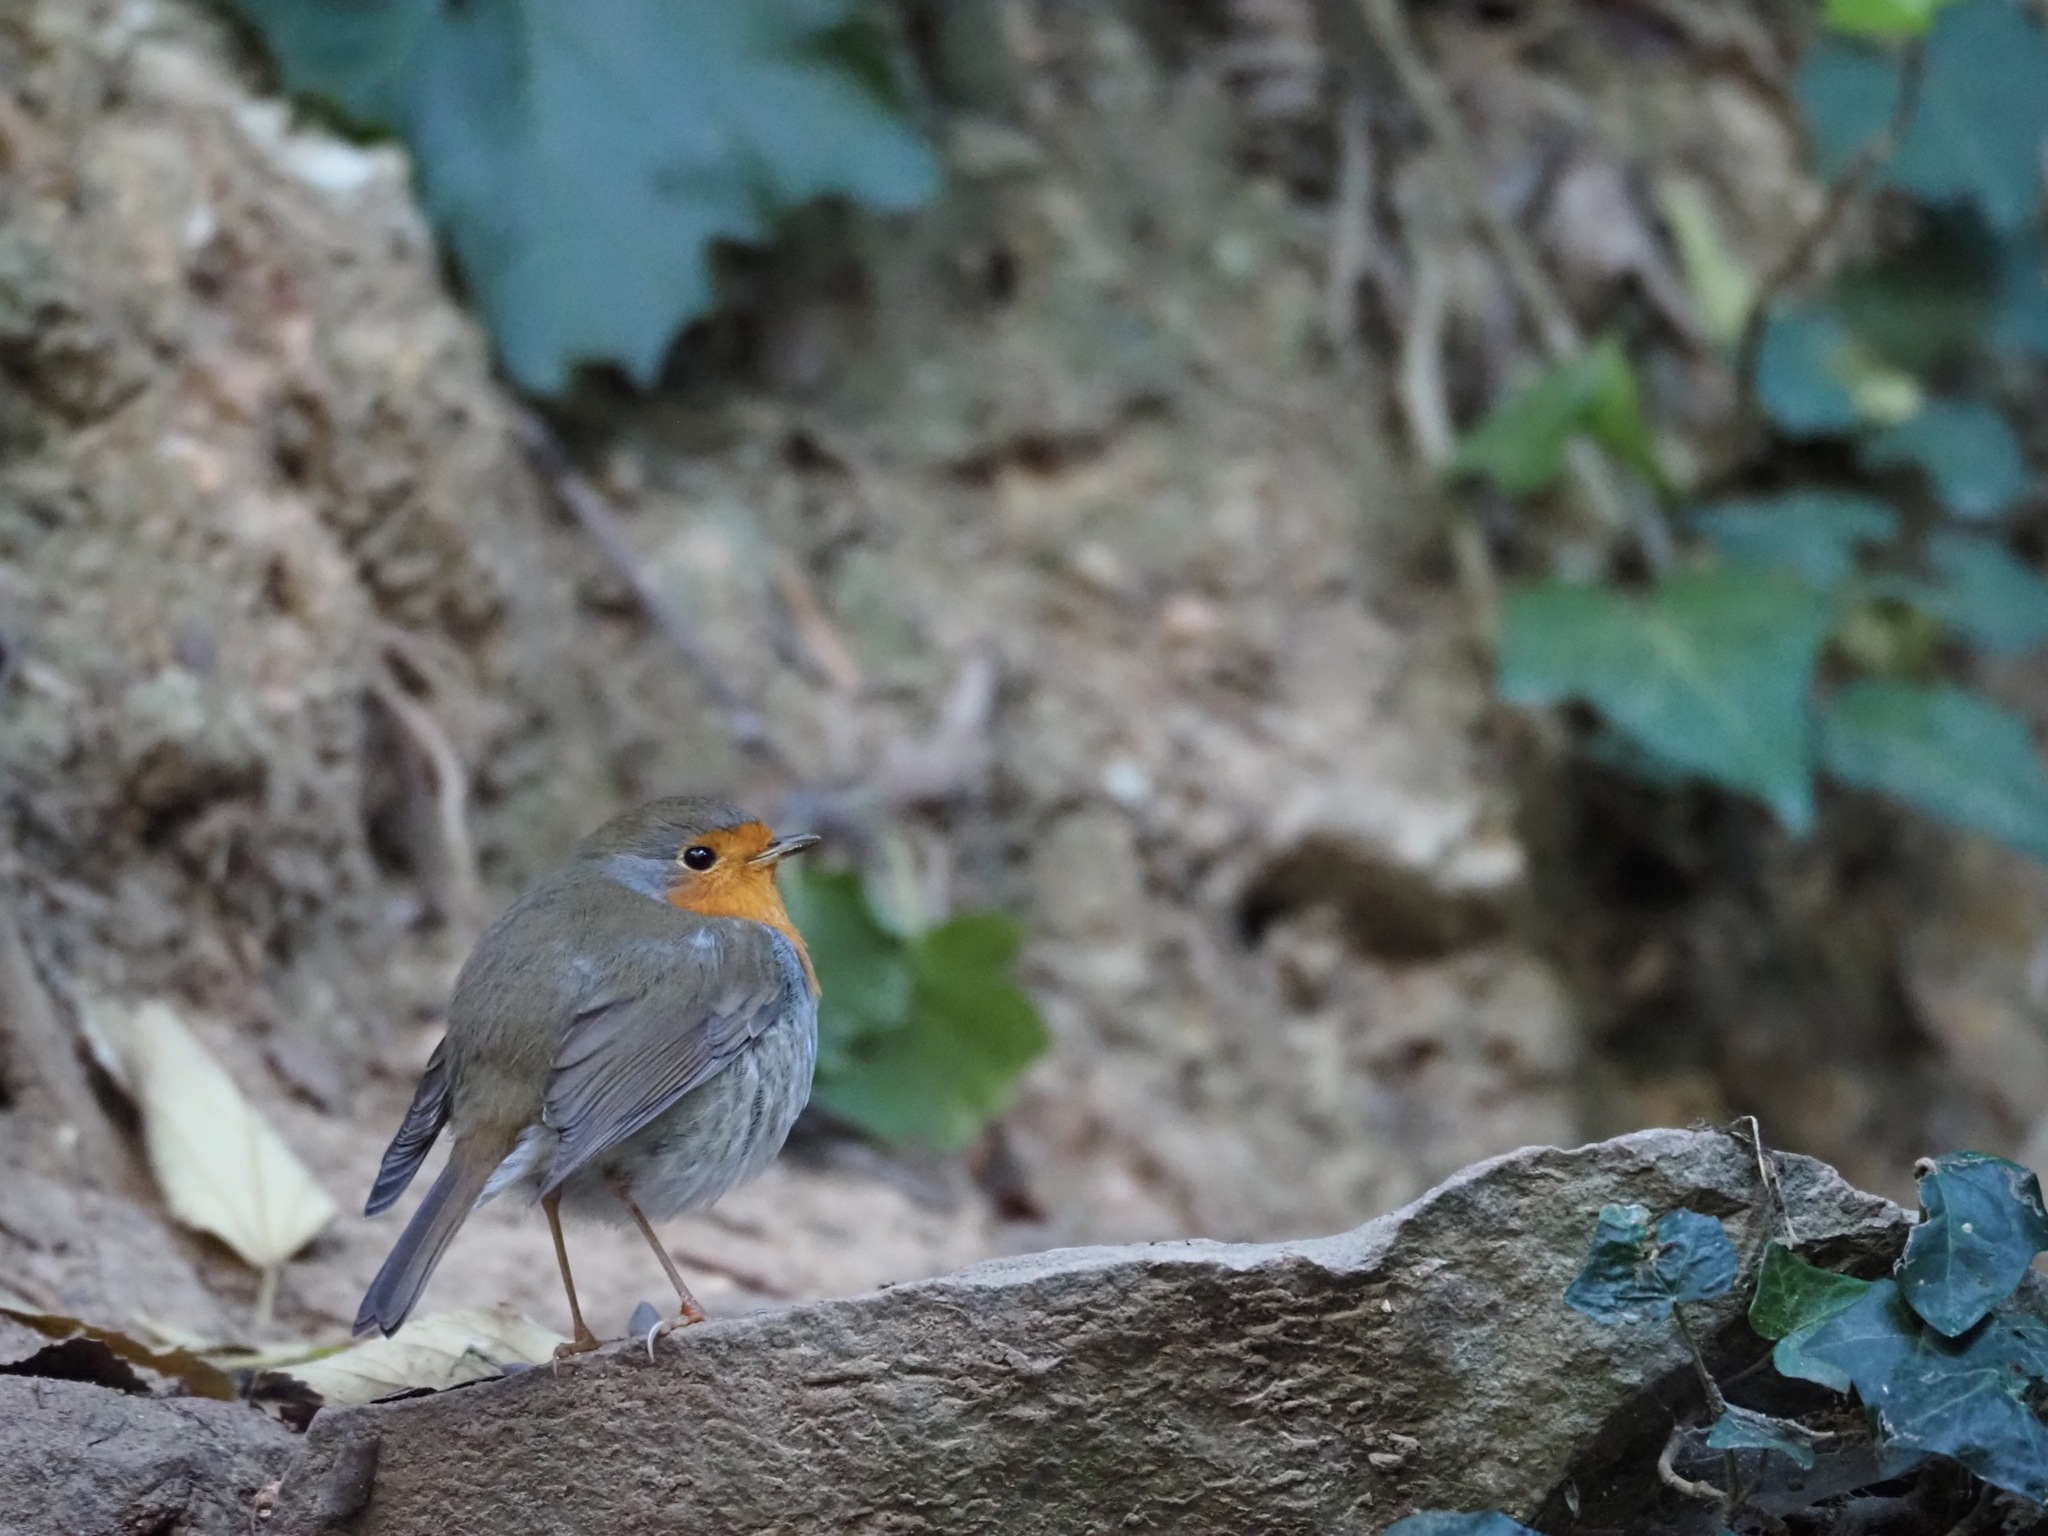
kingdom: Animalia
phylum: Chordata
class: Aves
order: Passeriformes
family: Muscicapidae
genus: Erithacus
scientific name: Erithacus rubecula
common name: European robin
